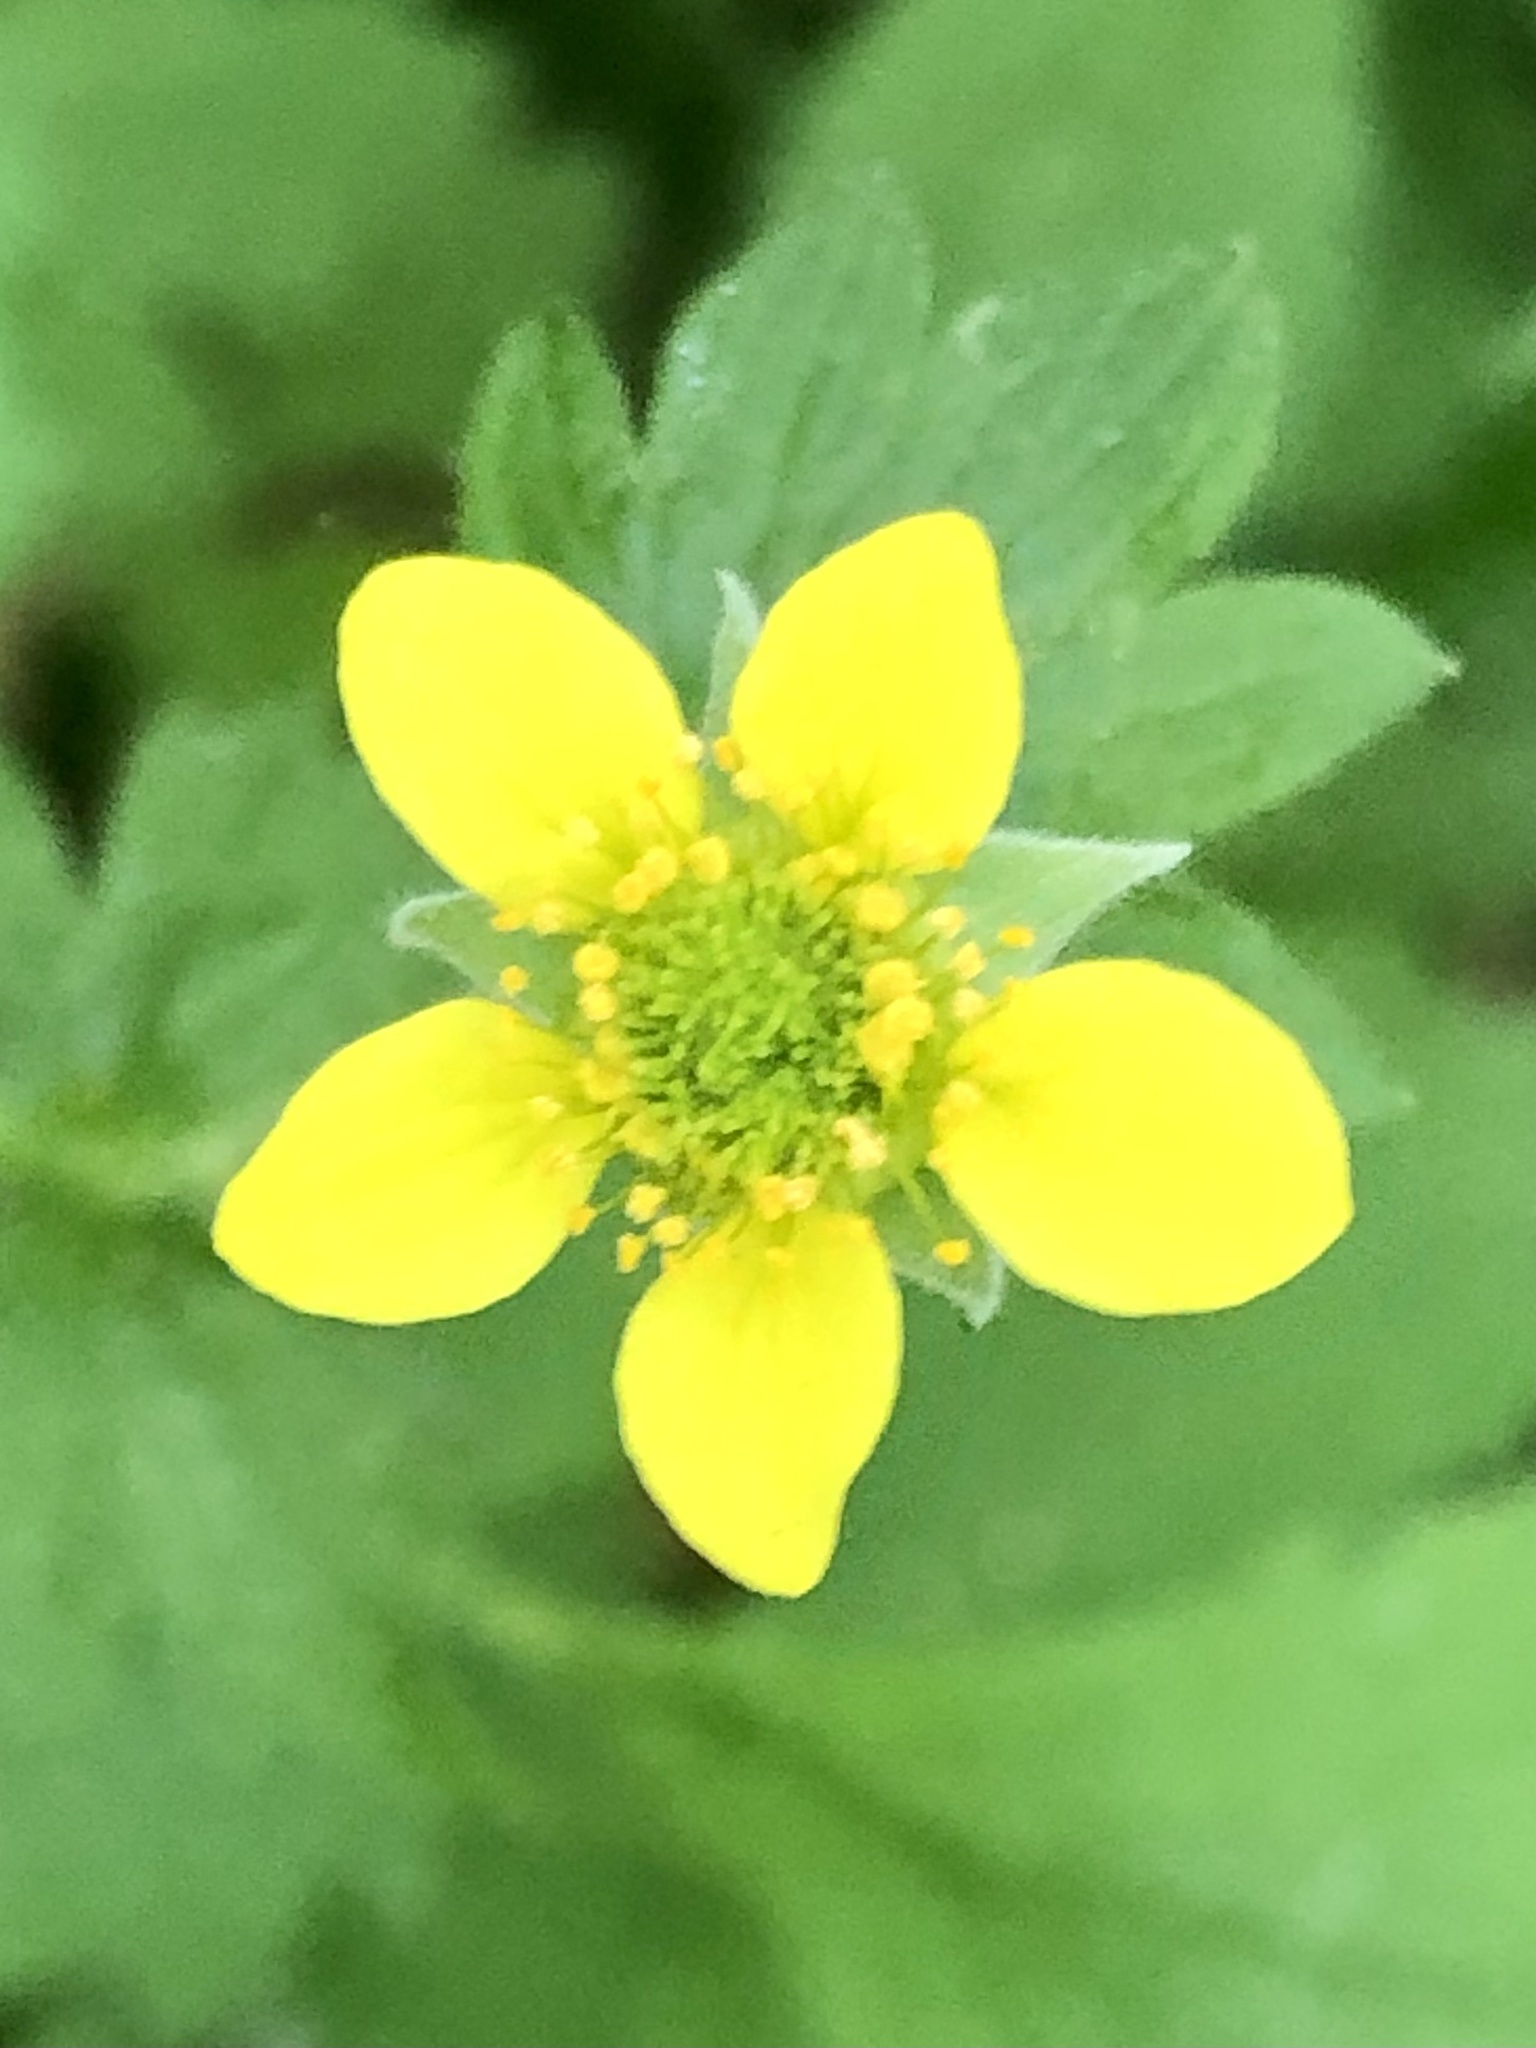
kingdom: Plantae
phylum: Tracheophyta
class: Magnoliopsida
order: Rosales
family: Rosaceae
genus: Geum
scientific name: Geum urbanum
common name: Wood avens
